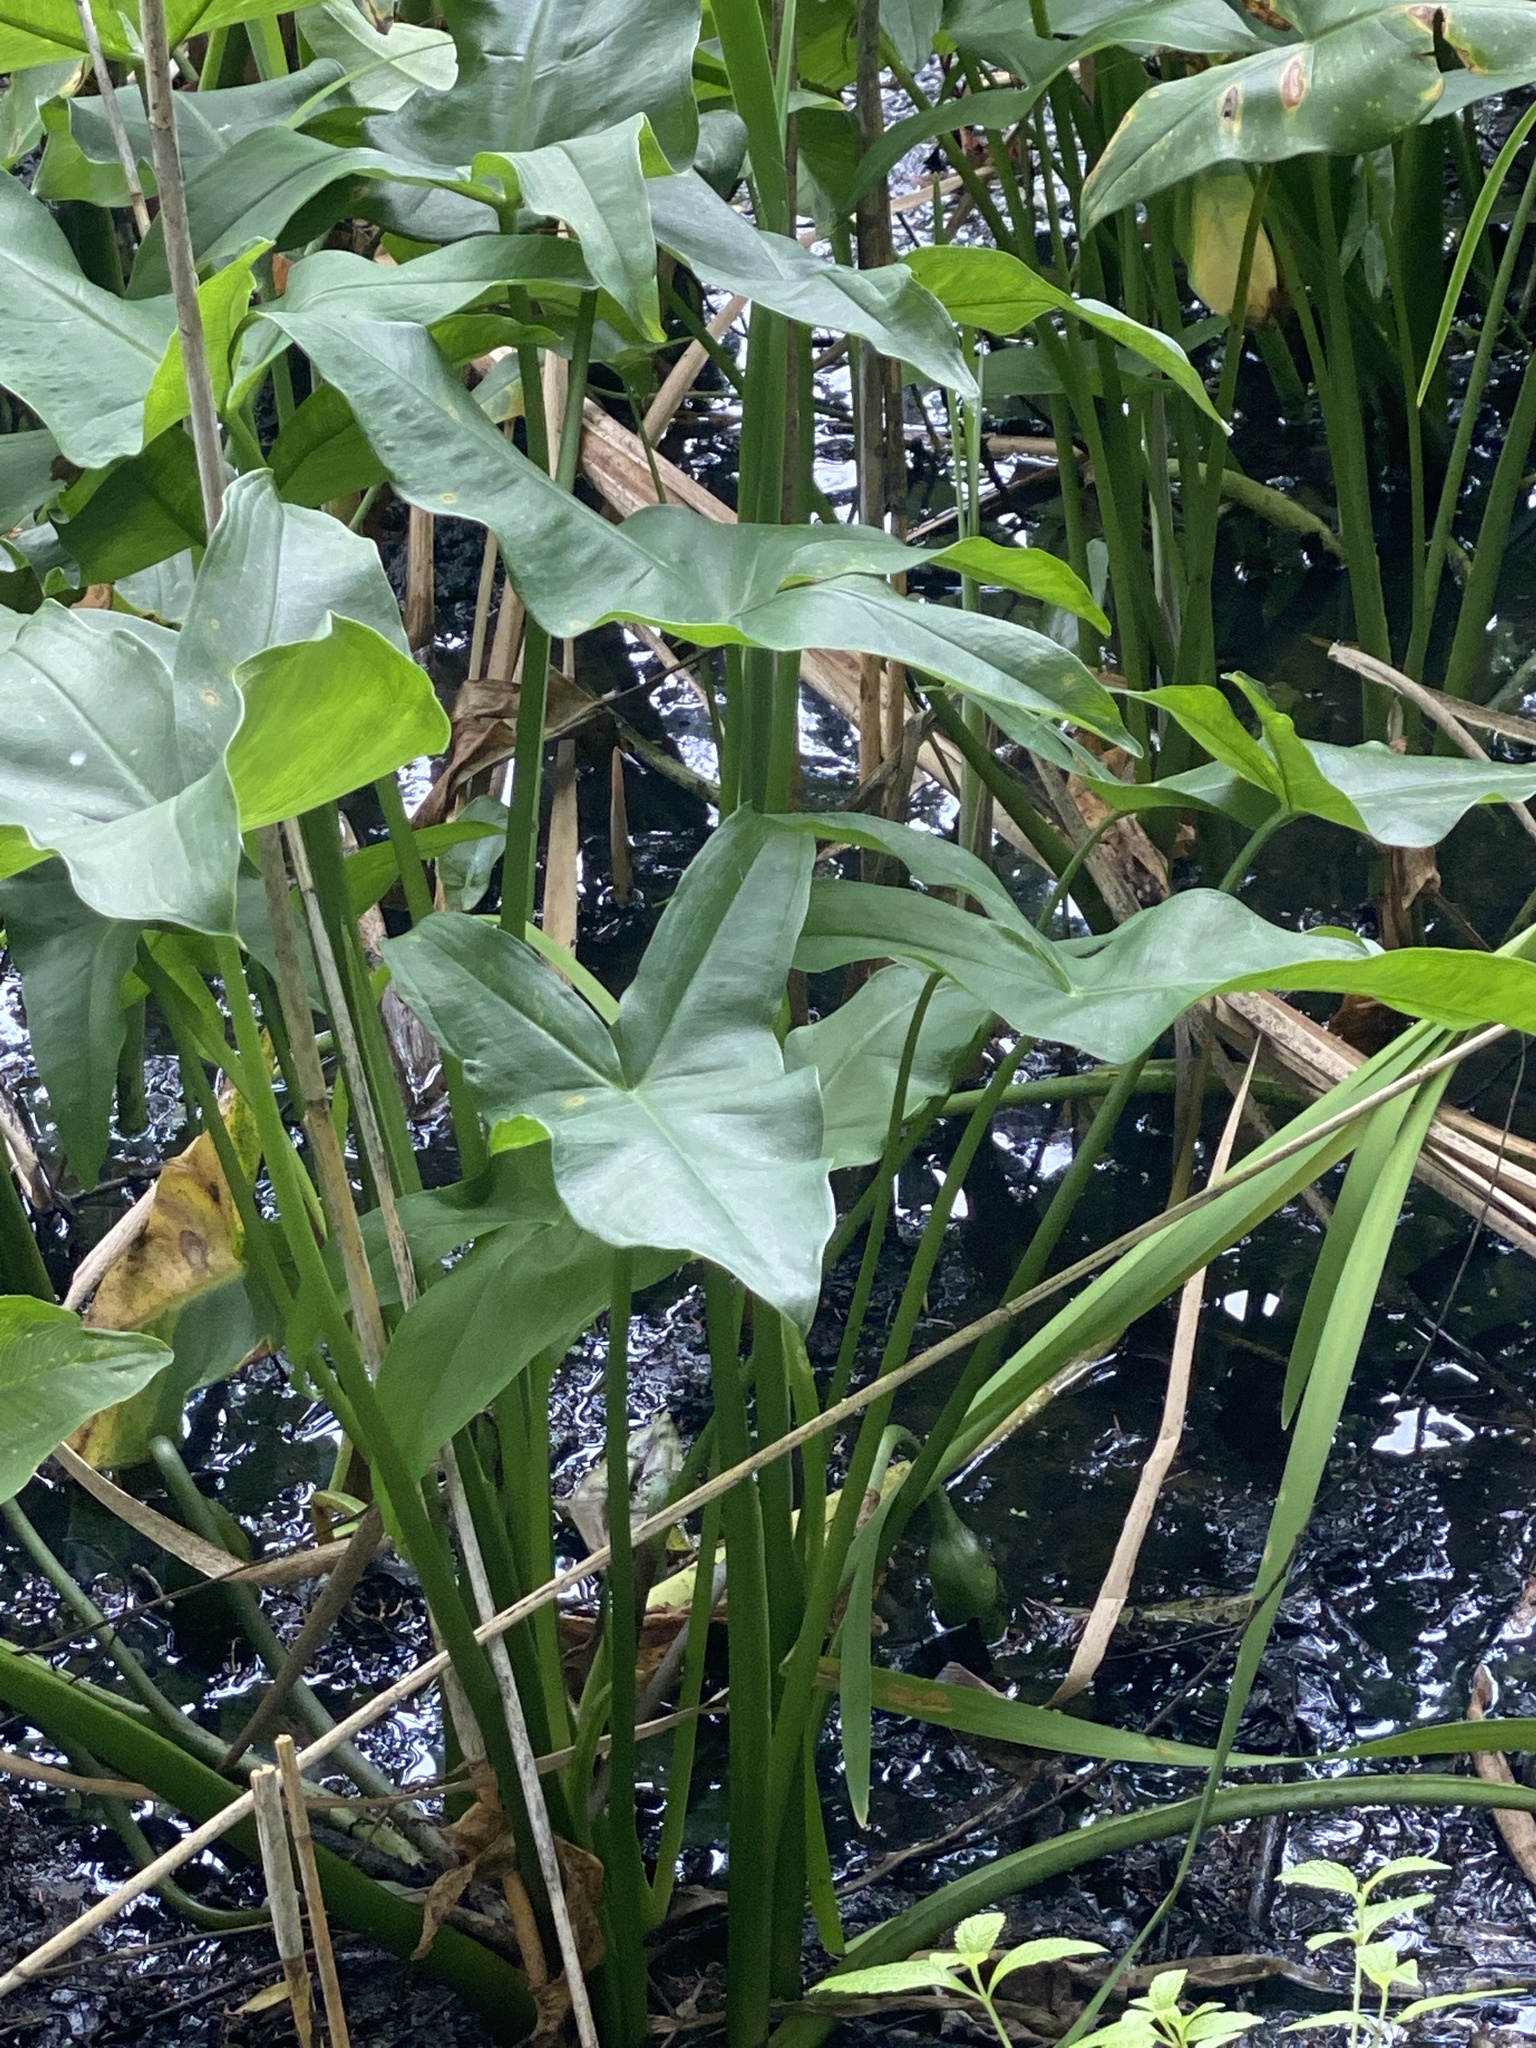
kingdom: Plantae
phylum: Tracheophyta
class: Liliopsida
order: Alismatales
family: Araceae
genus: Peltandra
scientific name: Peltandra virginica
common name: Arrow arum
